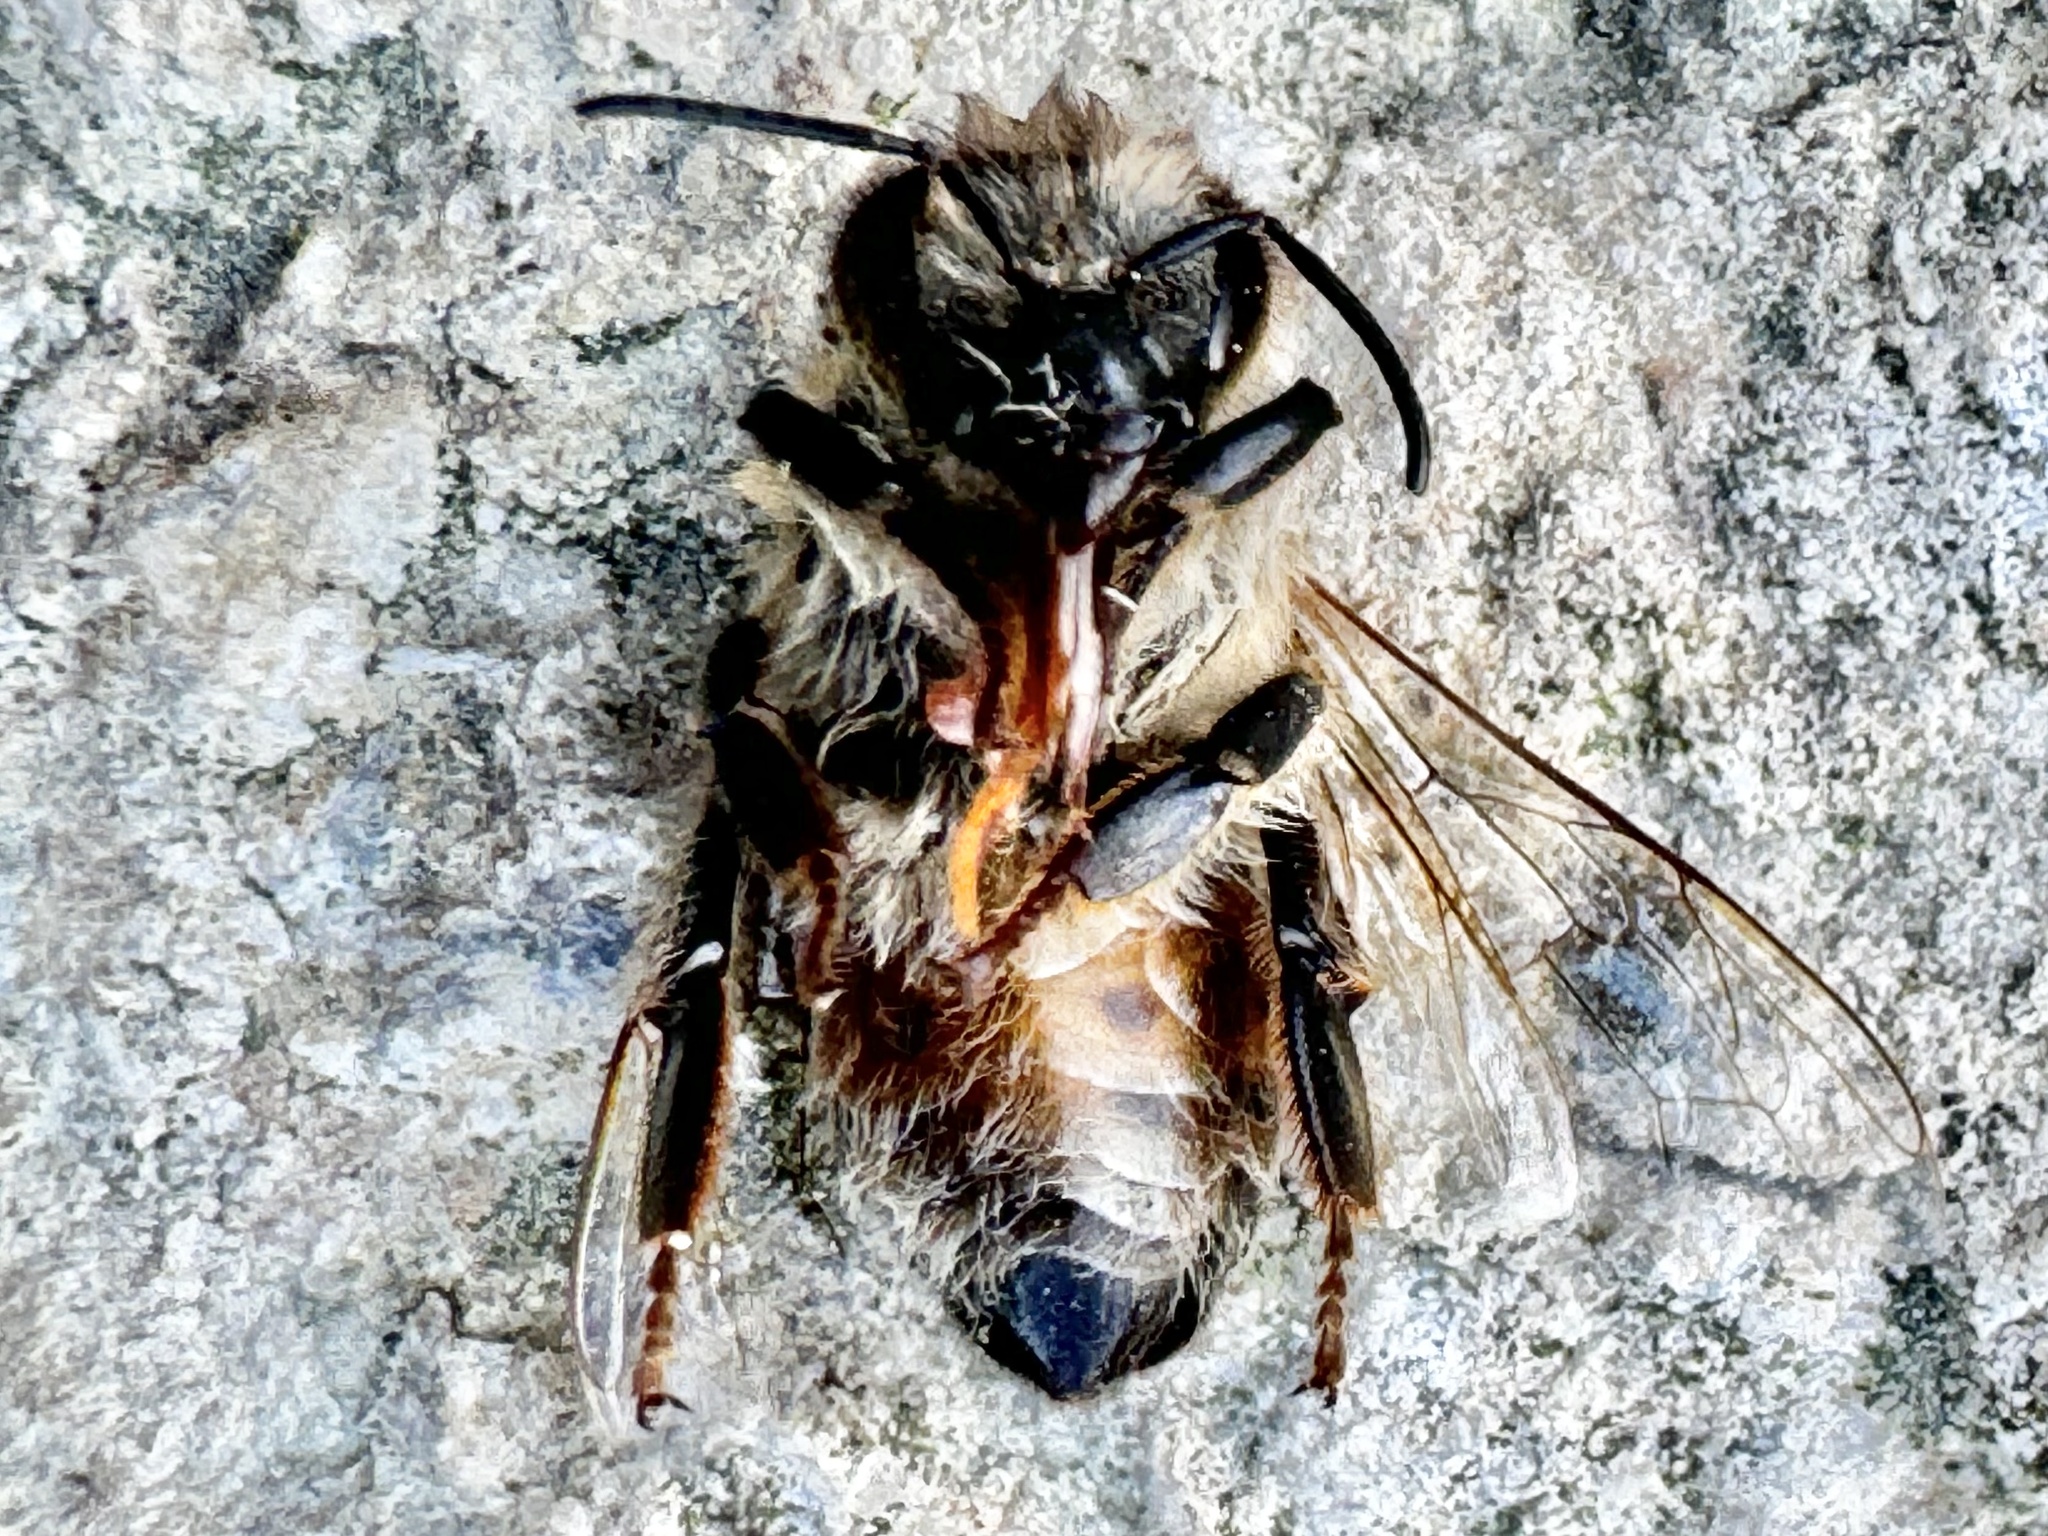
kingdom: Animalia
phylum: Arthropoda
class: Insecta
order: Hymenoptera
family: Apidae
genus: Apis
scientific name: Apis mellifera
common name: Honey bee
